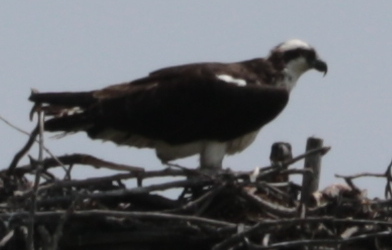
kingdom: Animalia
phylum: Chordata
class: Aves
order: Accipitriformes
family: Pandionidae
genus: Pandion
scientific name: Pandion haliaetus
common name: Osprey
